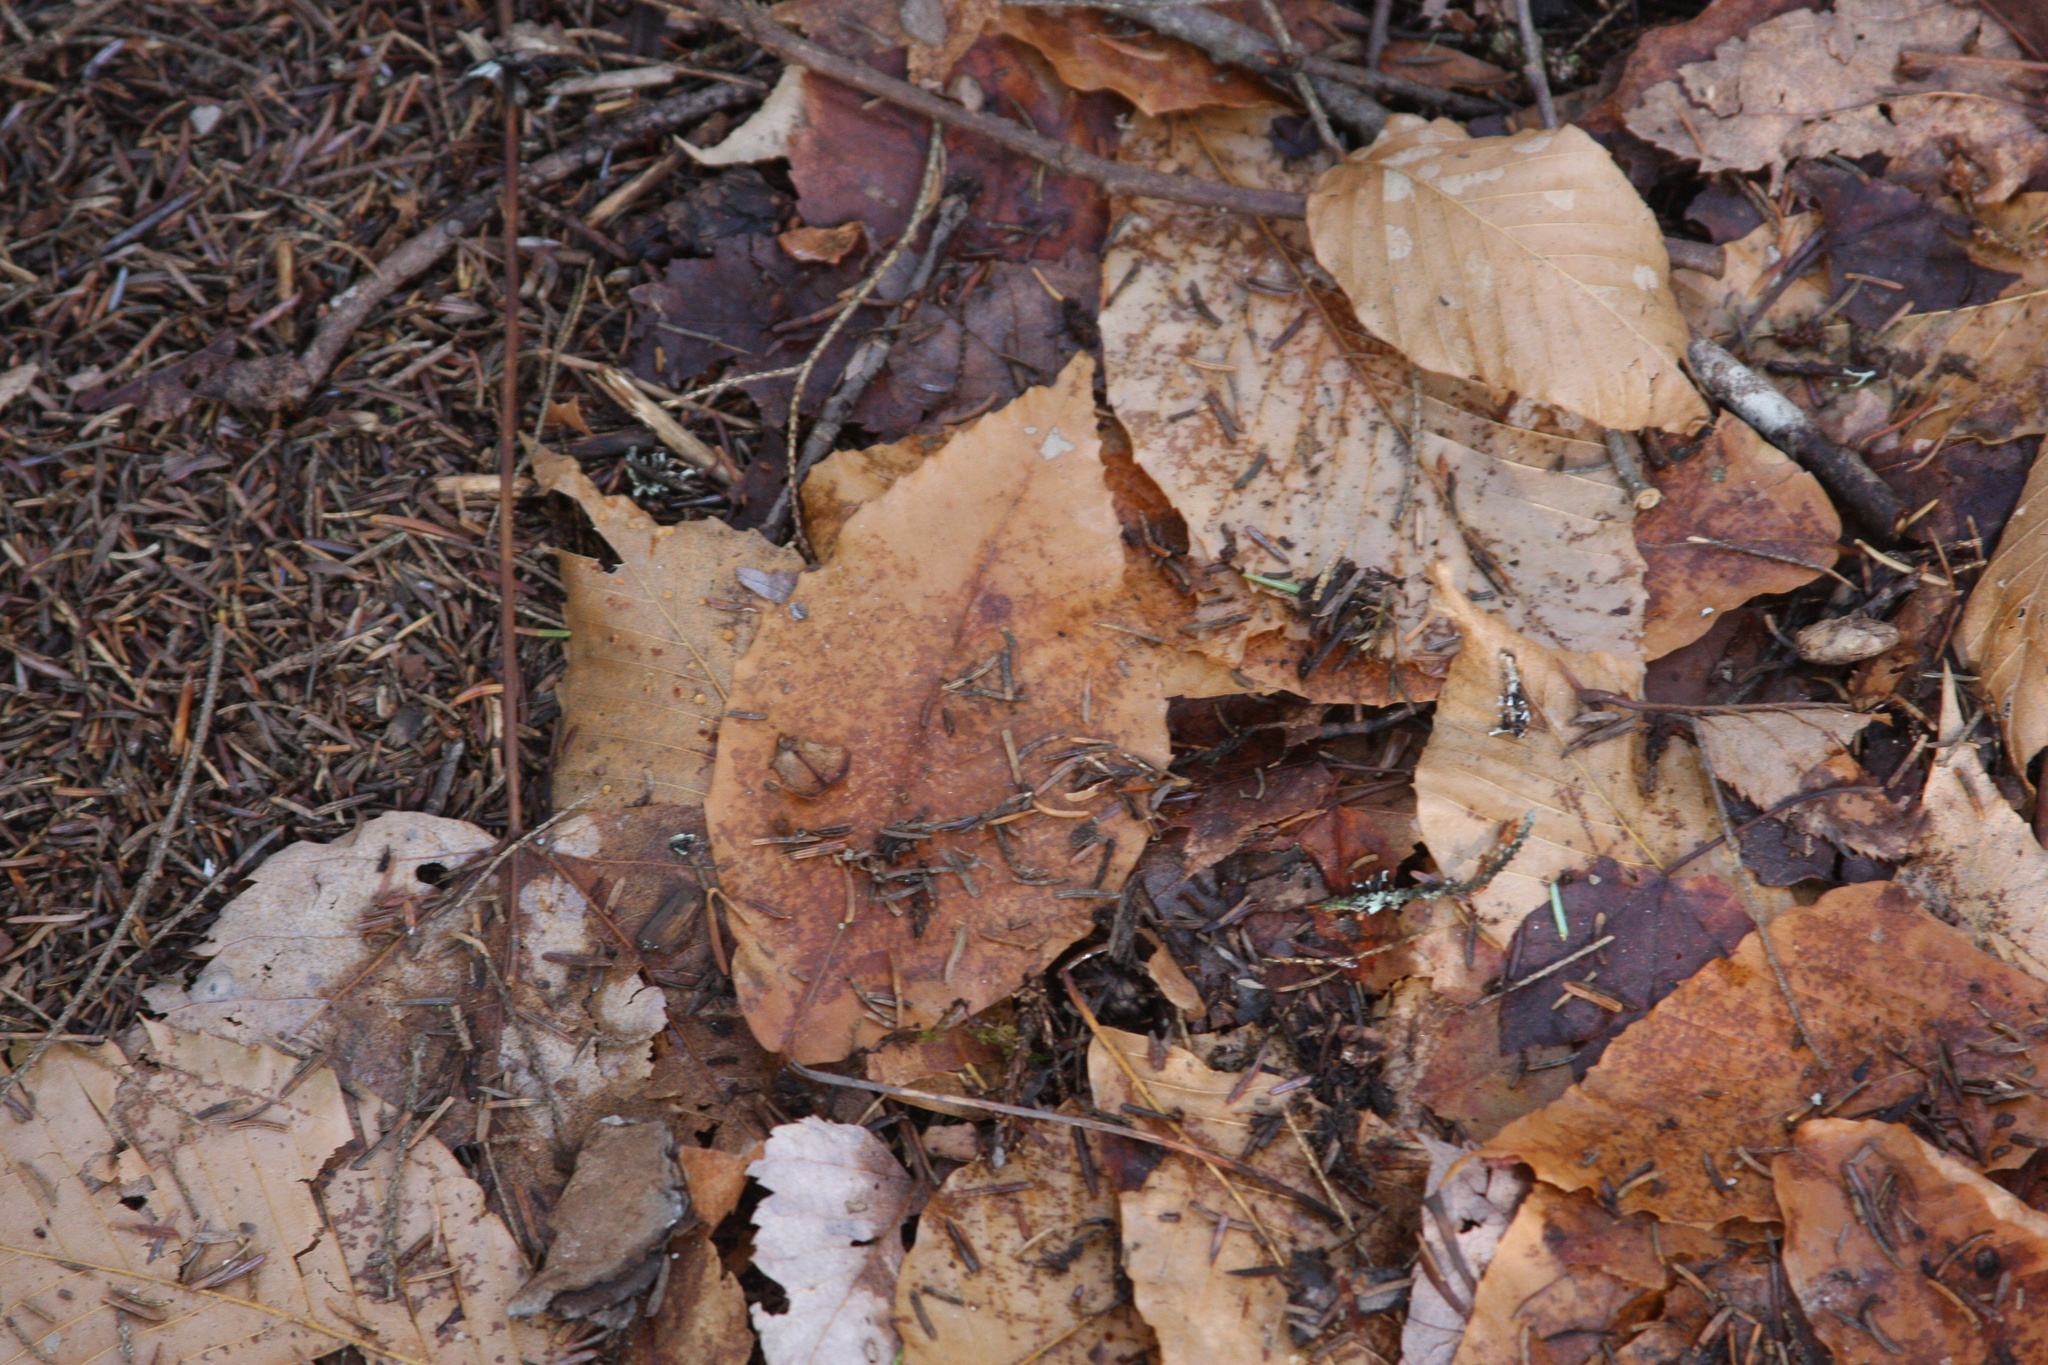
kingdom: Plantae
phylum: Tracheophyta
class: Magnoliopsida
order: Fagales
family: Fagaceae
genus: Fagus
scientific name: Fagus grandifolia
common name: American beech
